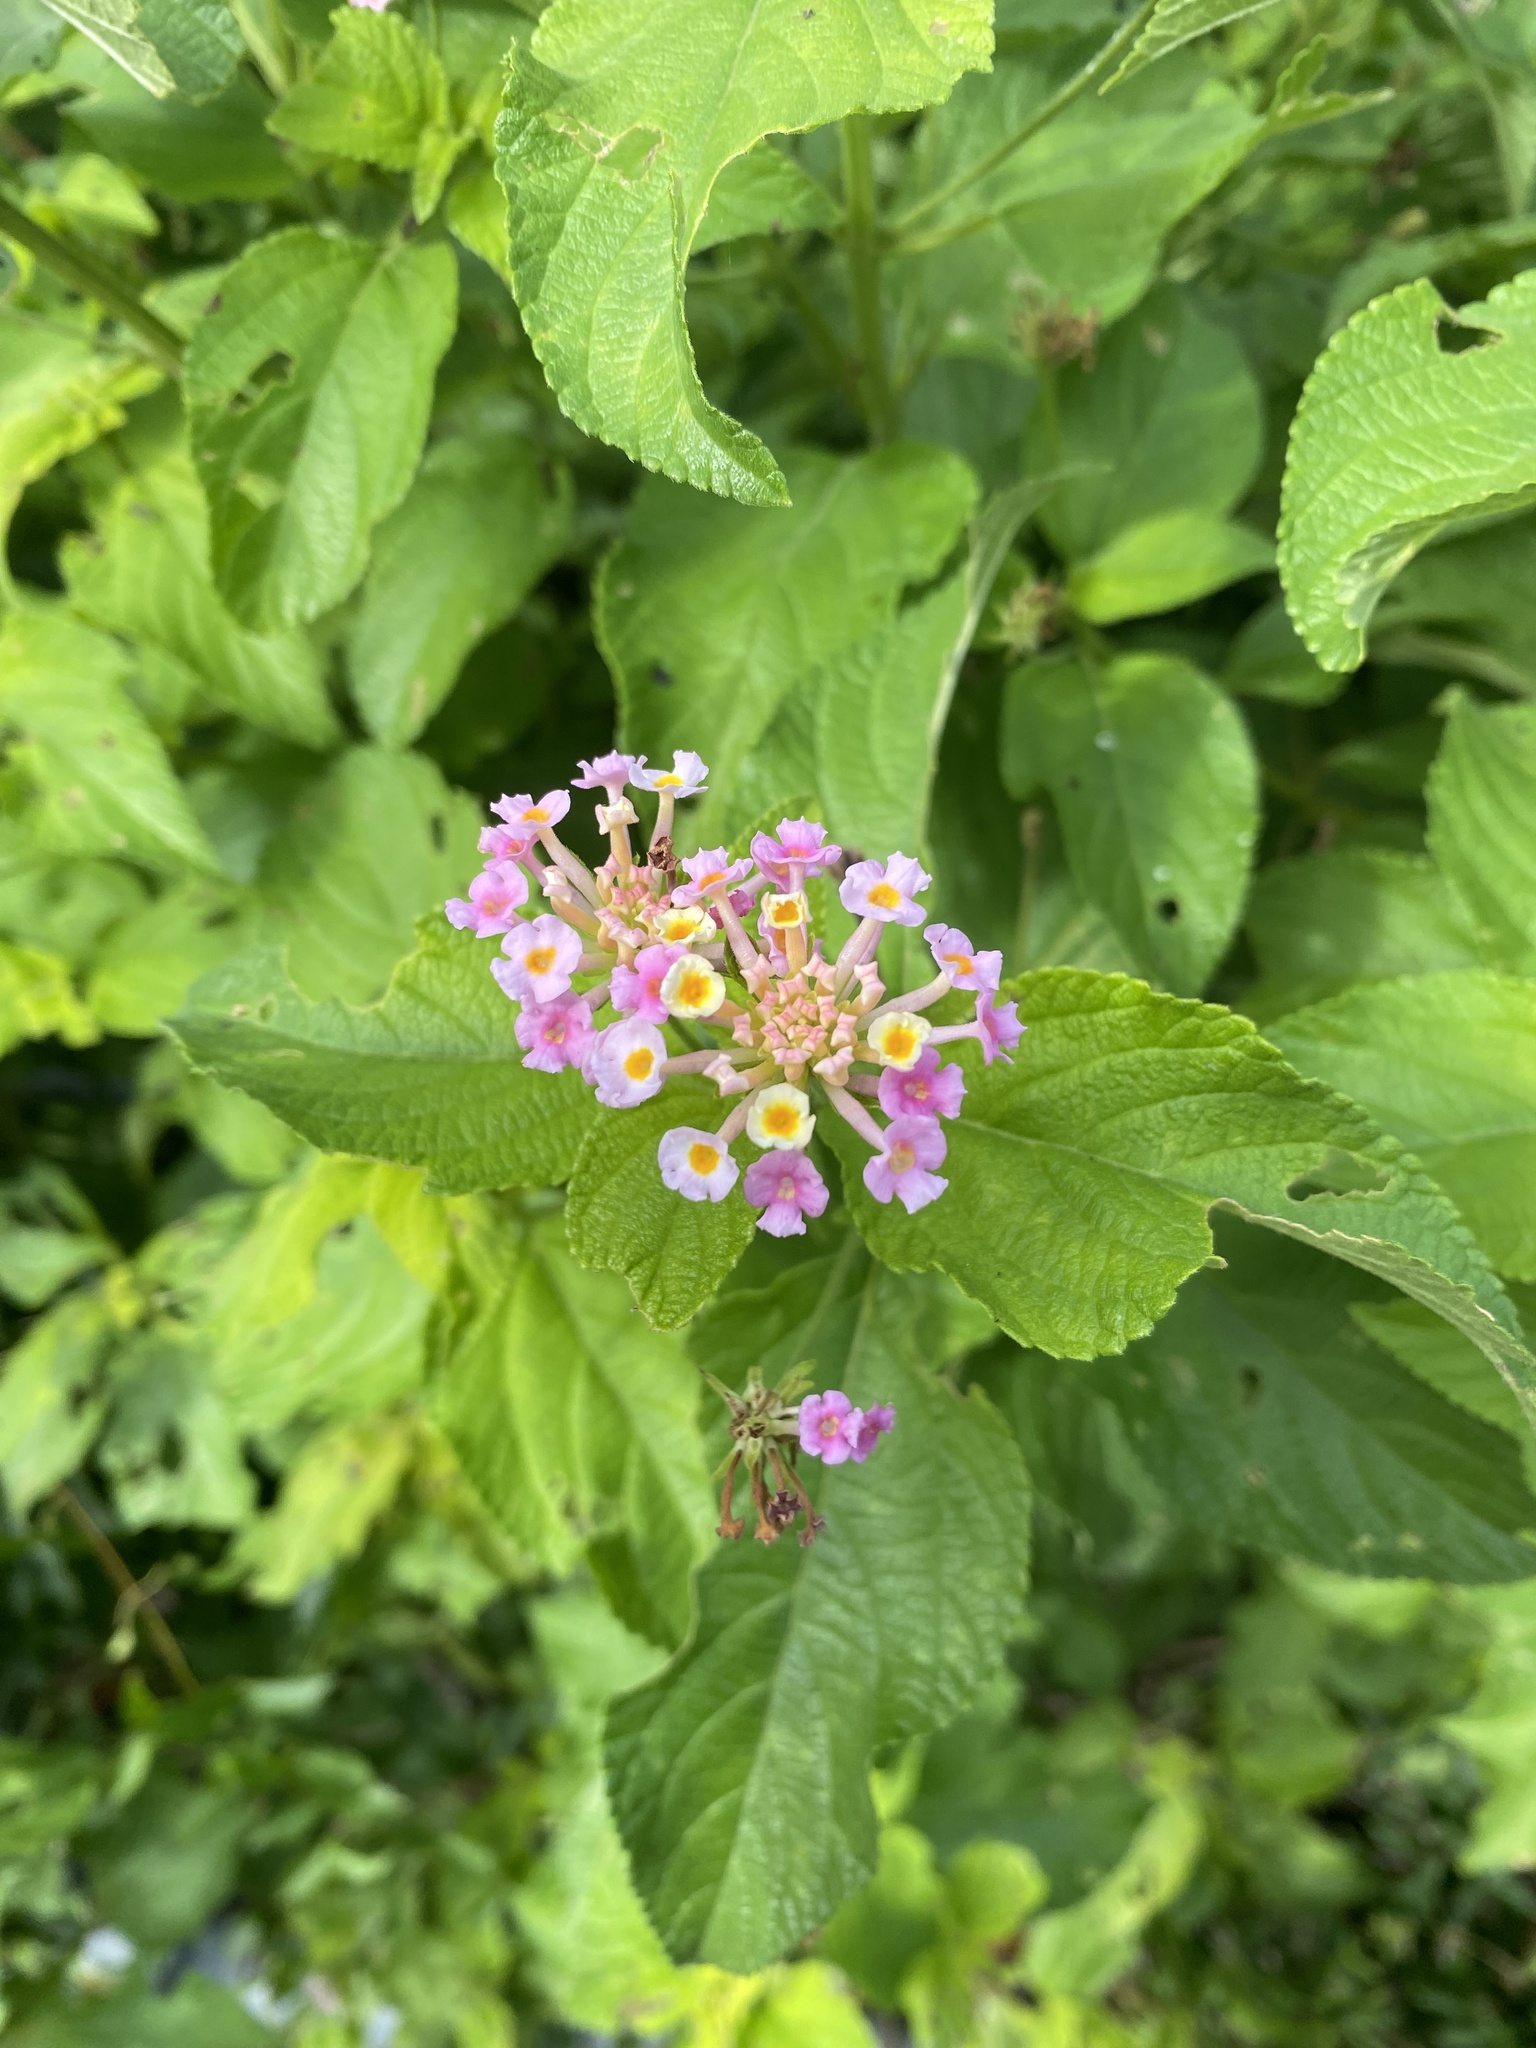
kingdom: Plantae
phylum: Tracheophyta
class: Magnoliopsida
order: Lamiales
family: Verbenaceae
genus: Lantana
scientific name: Lantana camara
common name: Lantana
